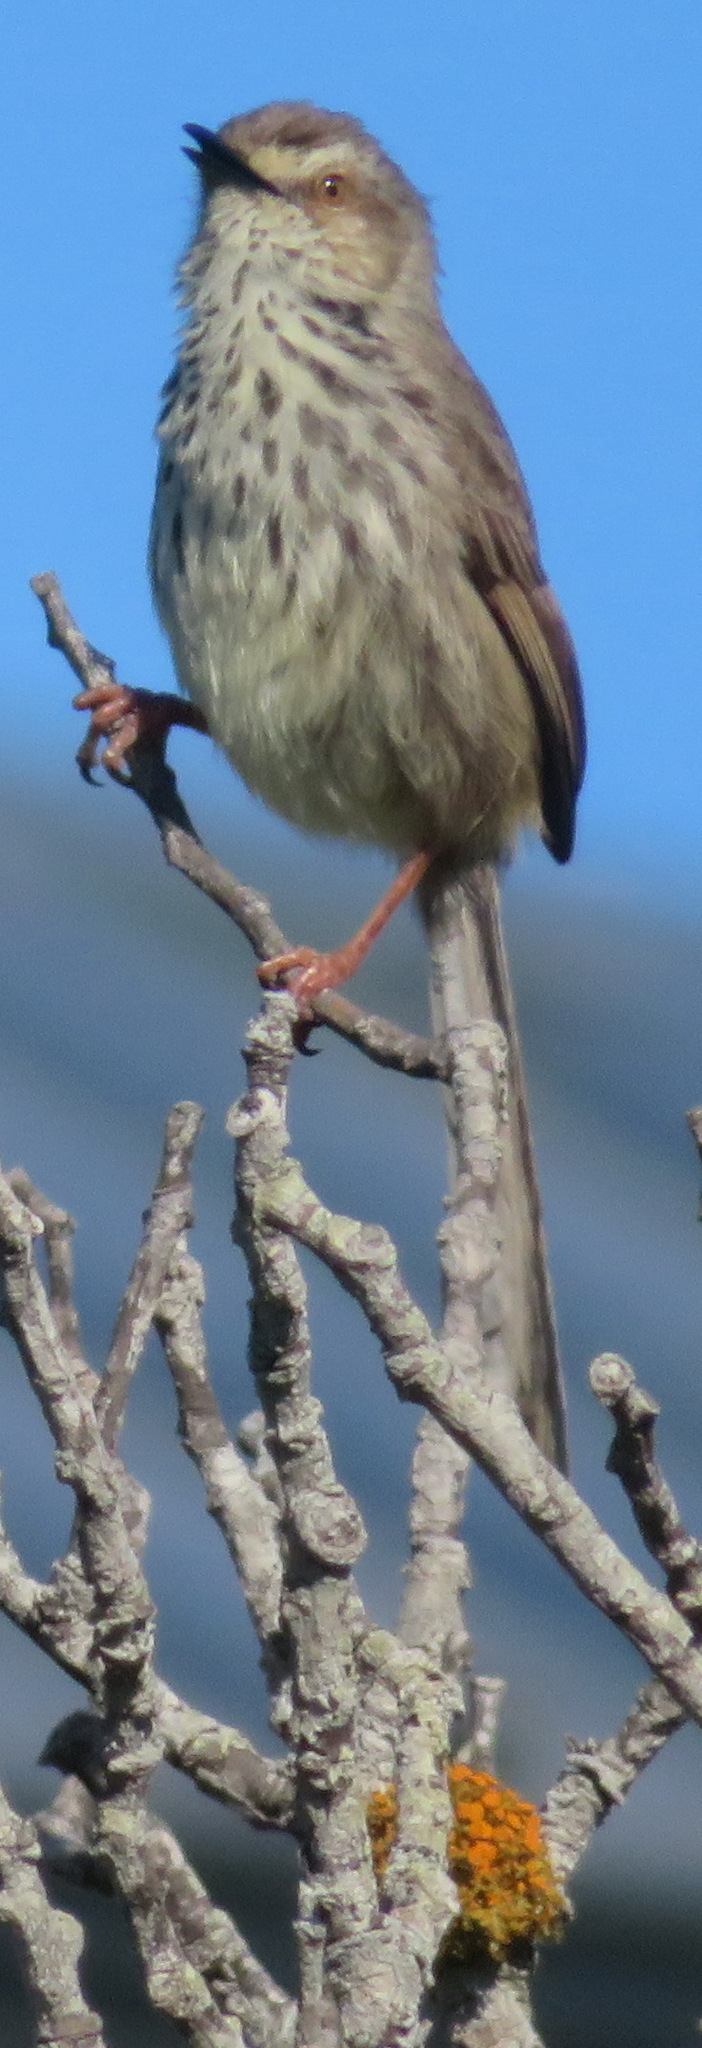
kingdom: Animalia
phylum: Chordata
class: Aves
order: Passeriformes
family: Cisticolidae
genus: Prinia
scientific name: Prinia maculosa
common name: Karoo prinia
